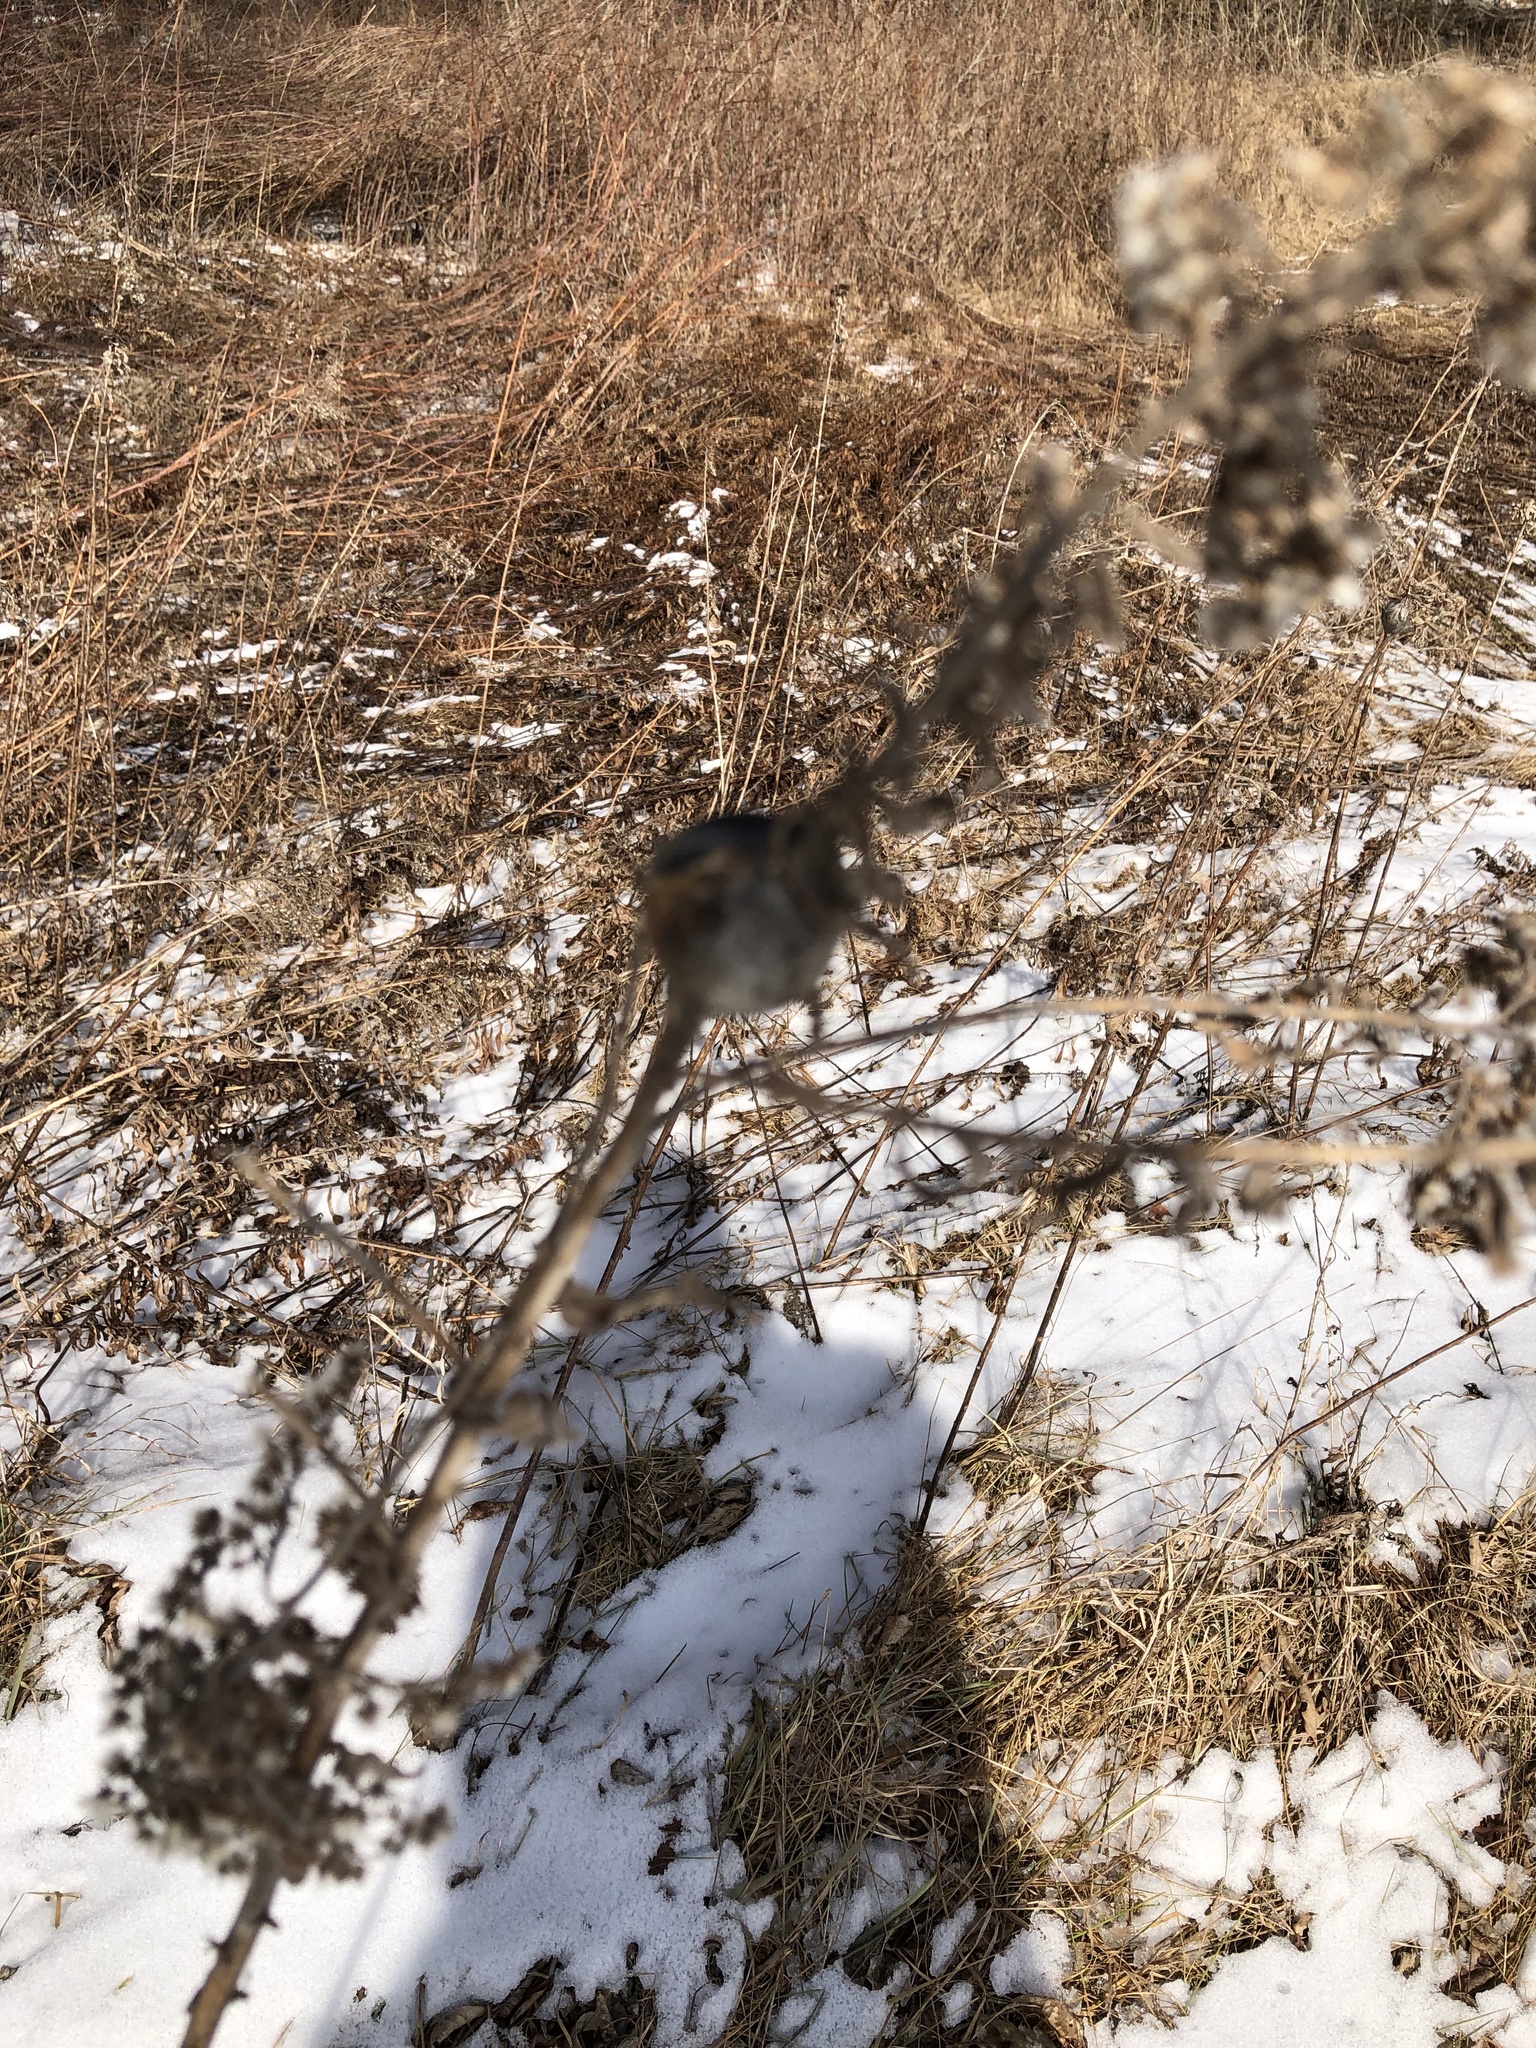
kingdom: Animalia
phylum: Arthropoda
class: Insecta
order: Diptera
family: Tephritidae
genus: Eurosta
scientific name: Eurosta solidaginis
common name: Goldenrod gall fly
